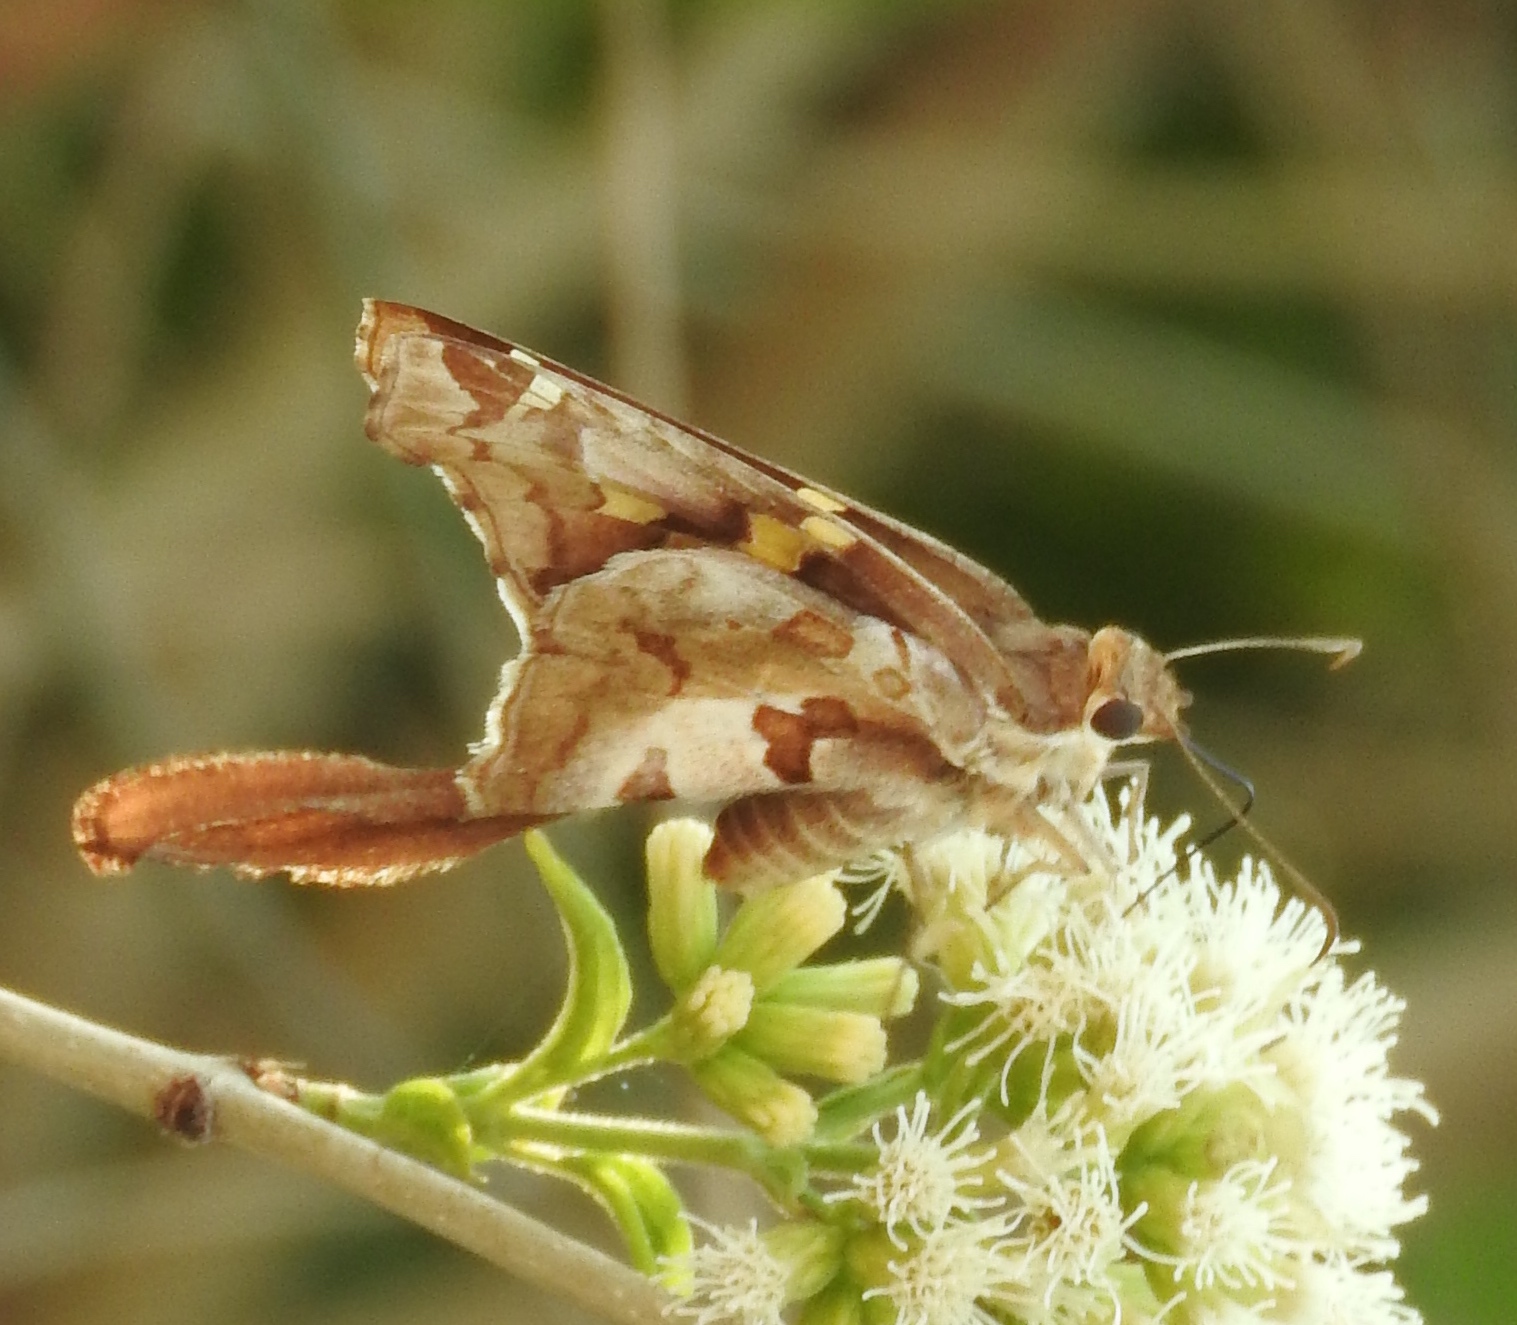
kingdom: Animalia
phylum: Arthropoda
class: Insecta
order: Lepidoptera
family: Hesperiidae
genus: Chioides
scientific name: Chioides zilpa
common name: Zilpa longtail
